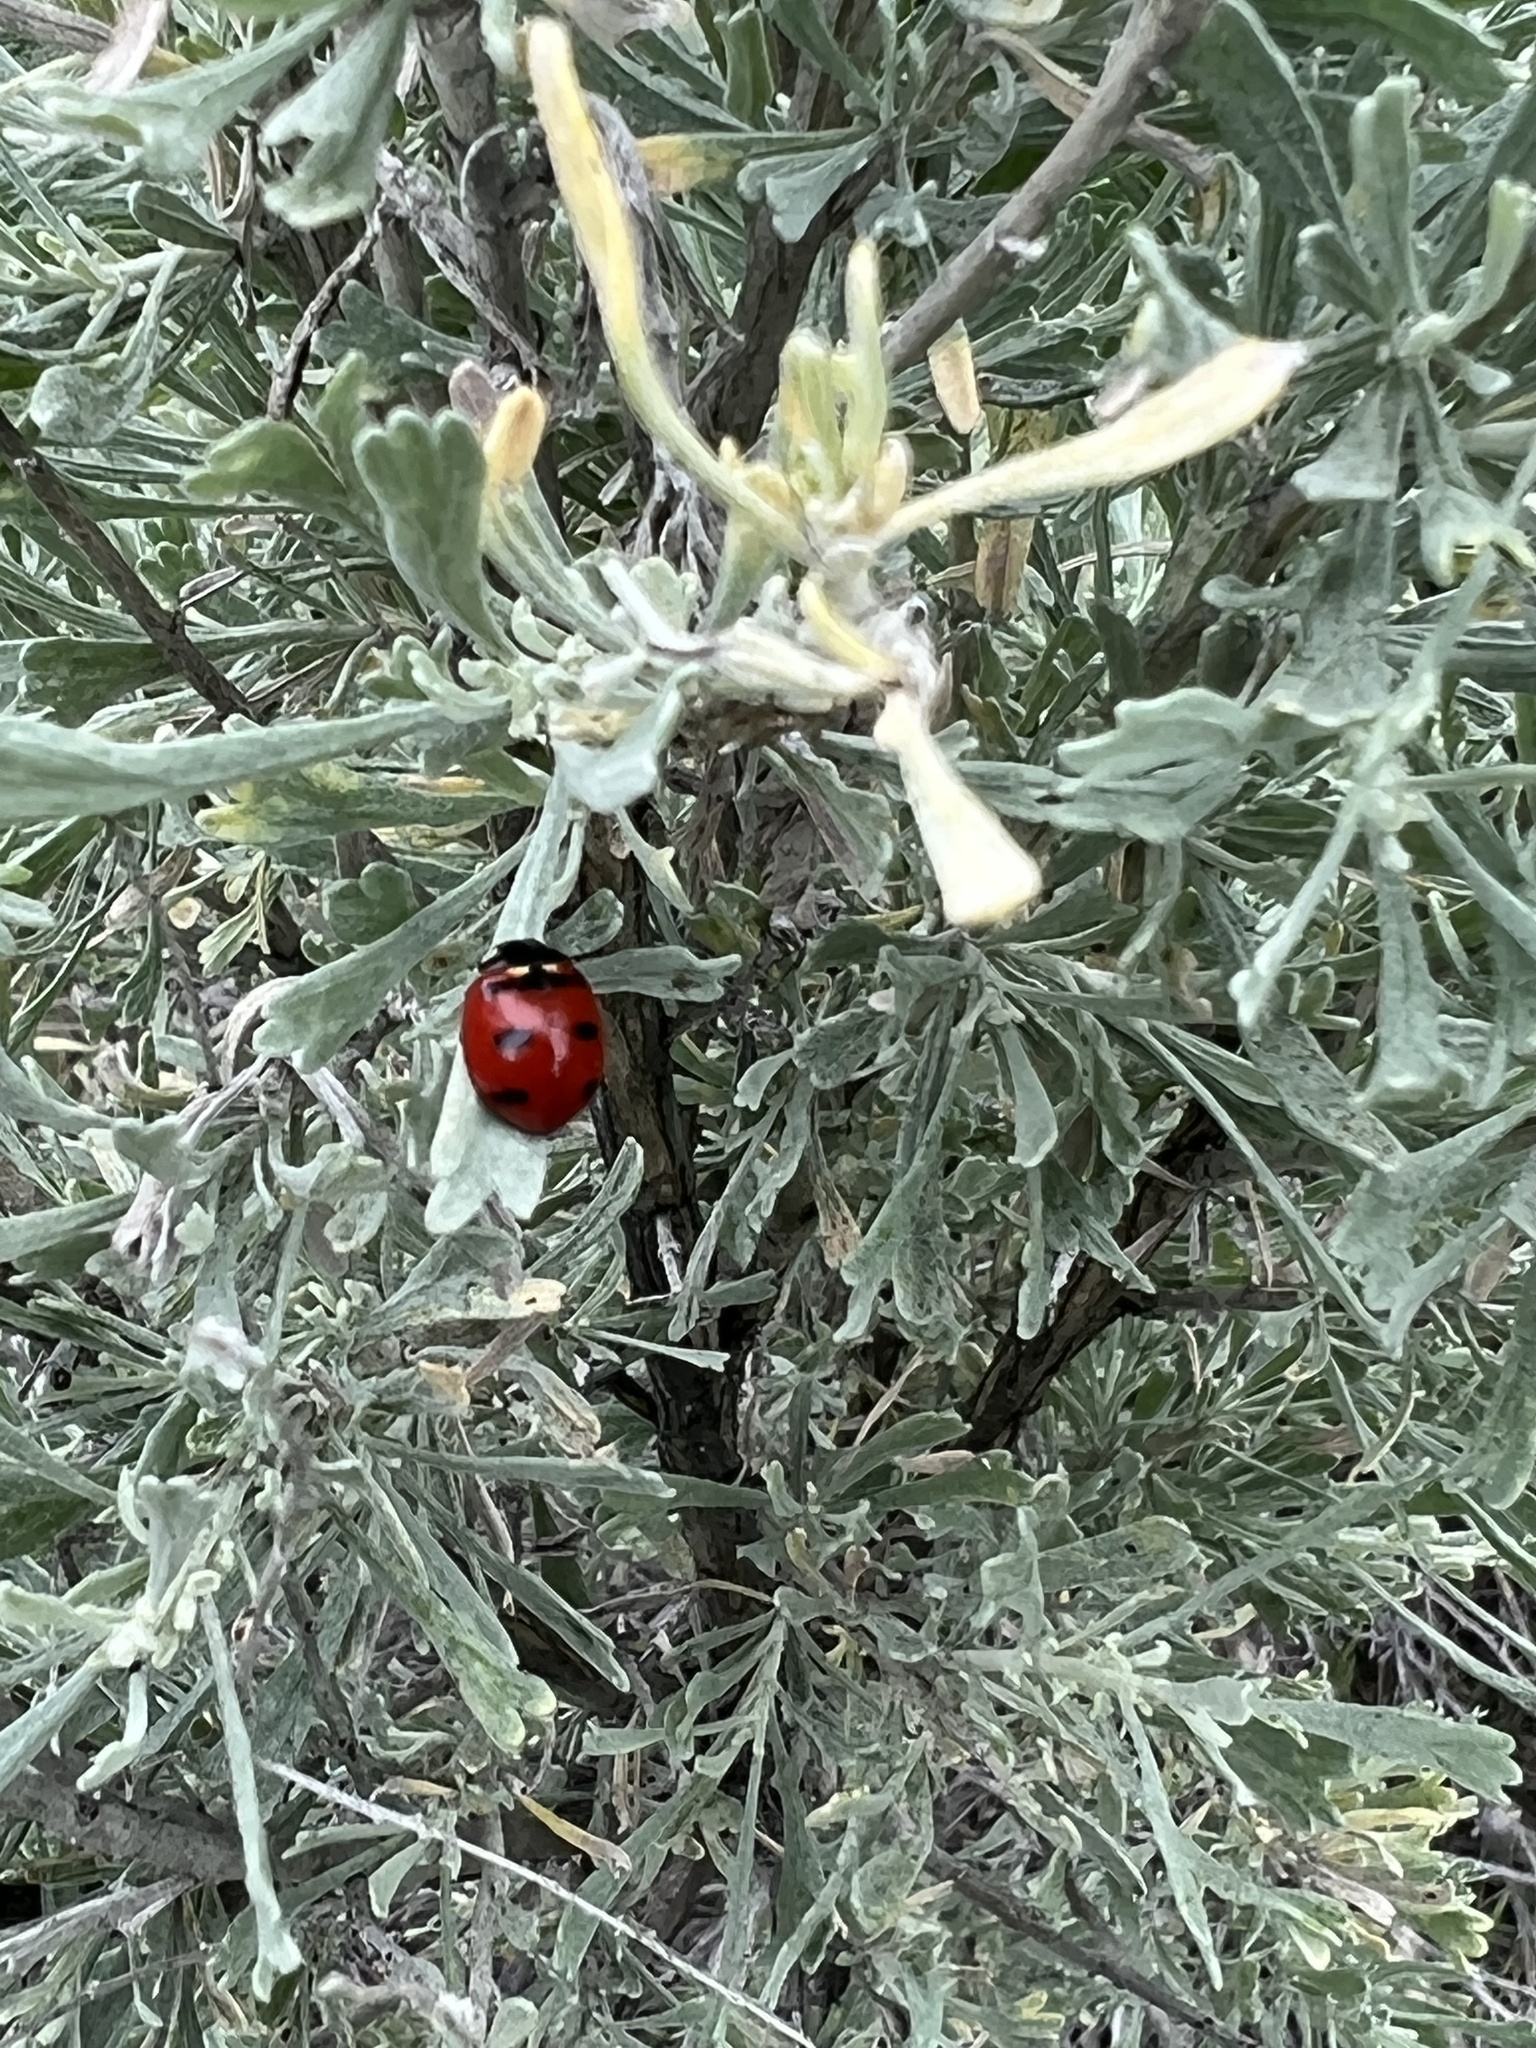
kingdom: Animalia
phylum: Arthropoda
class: Insecta
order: Coleoptera
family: Coccinellidae
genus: Coccinella
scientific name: Coccinella transversoguttata
